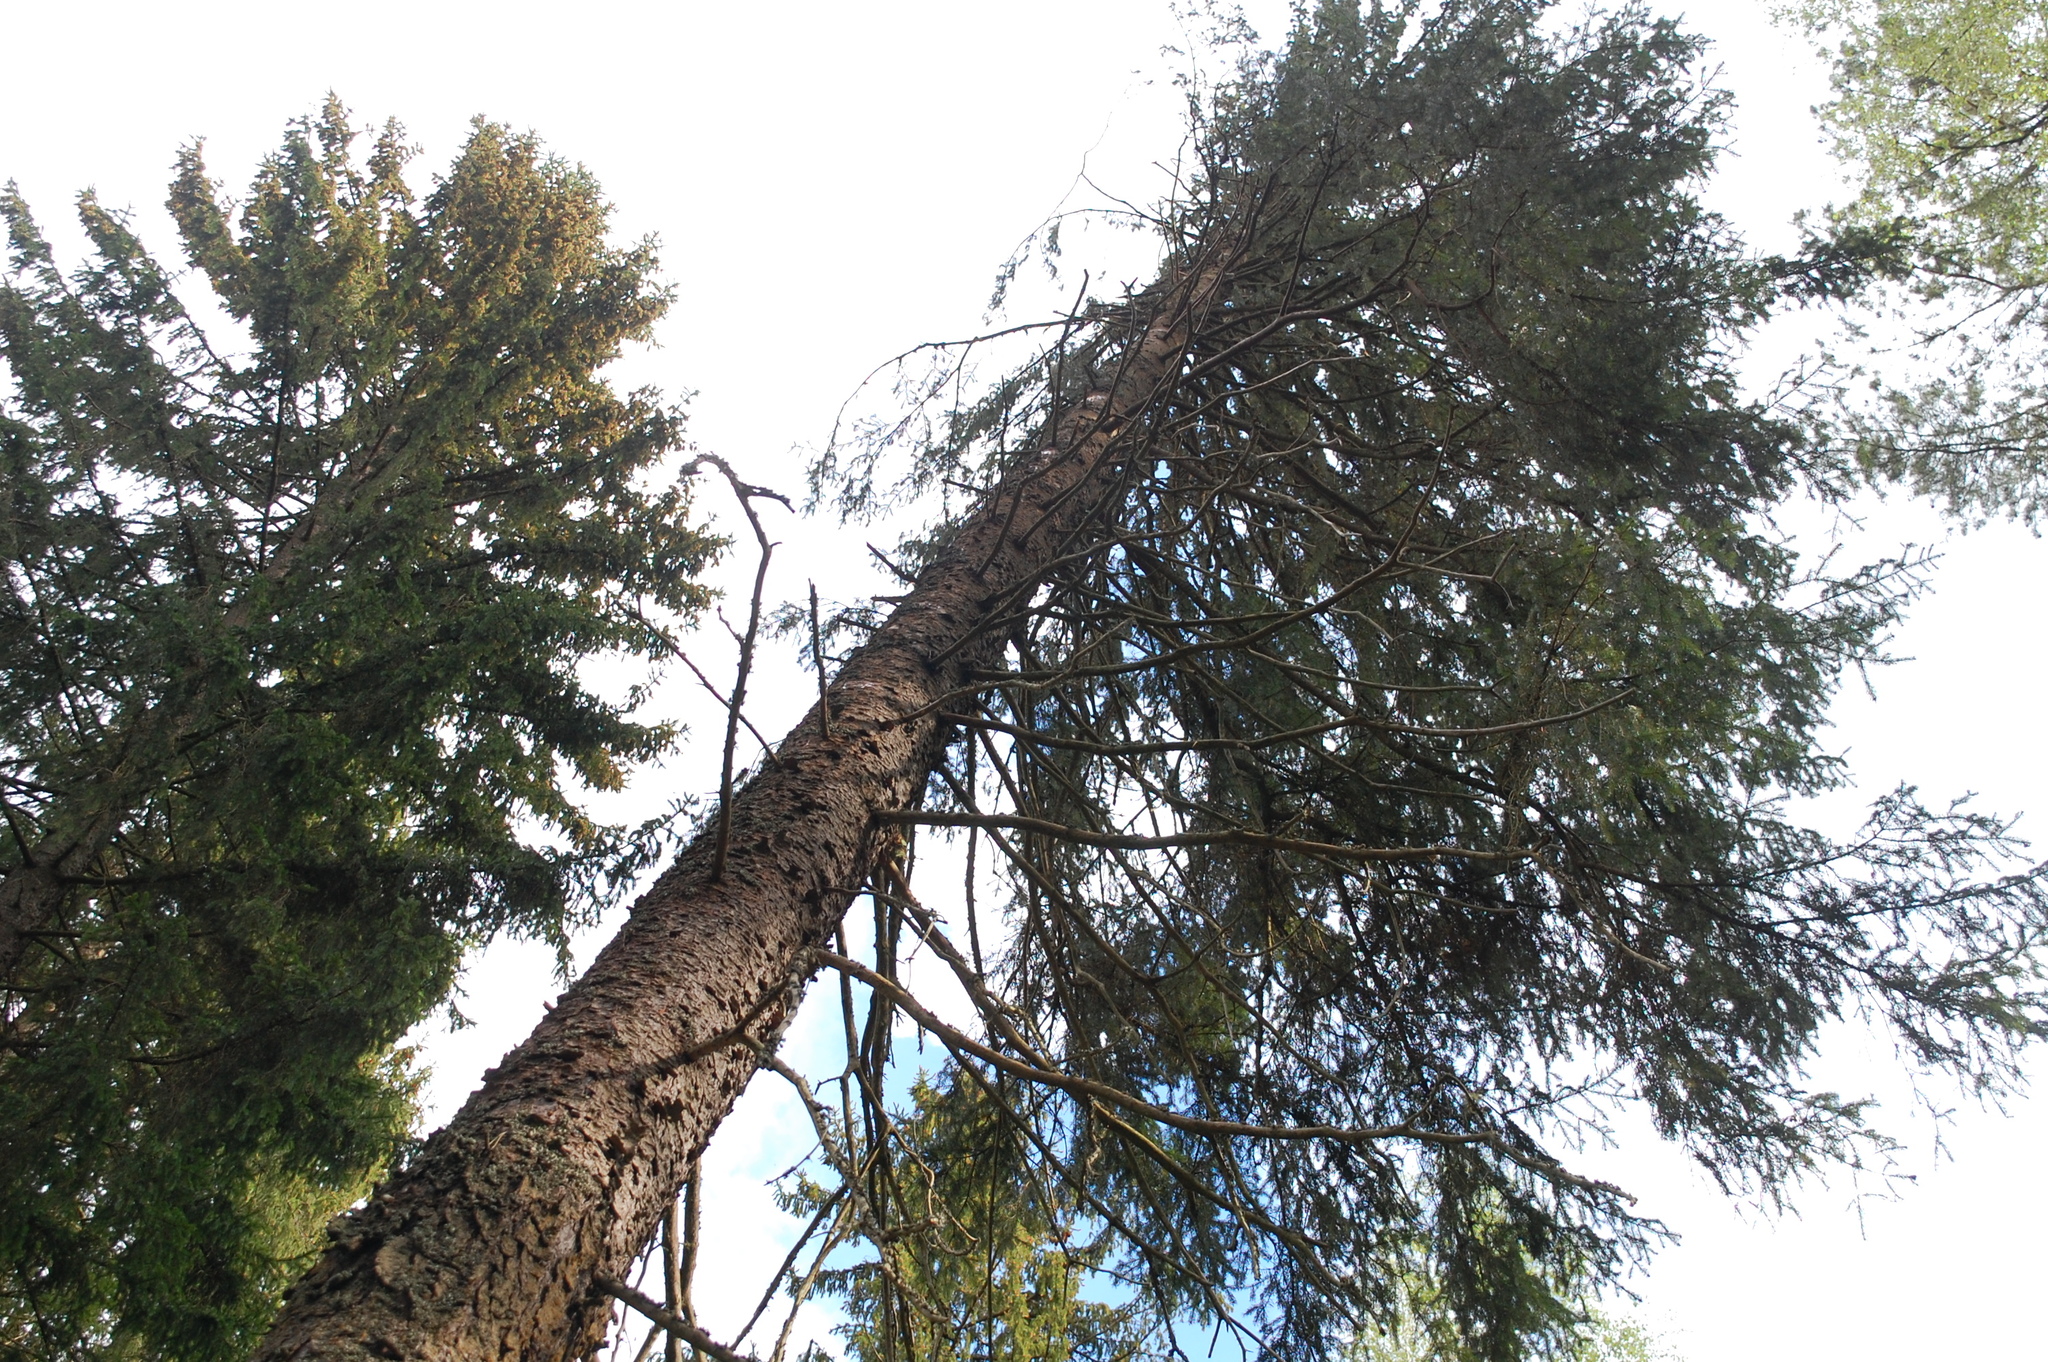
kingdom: Plantae
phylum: Tracheophyta
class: Pinopsida
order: Pinales
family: Pinaceae
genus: Picea
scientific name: Picea abies
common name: Norway spruce
